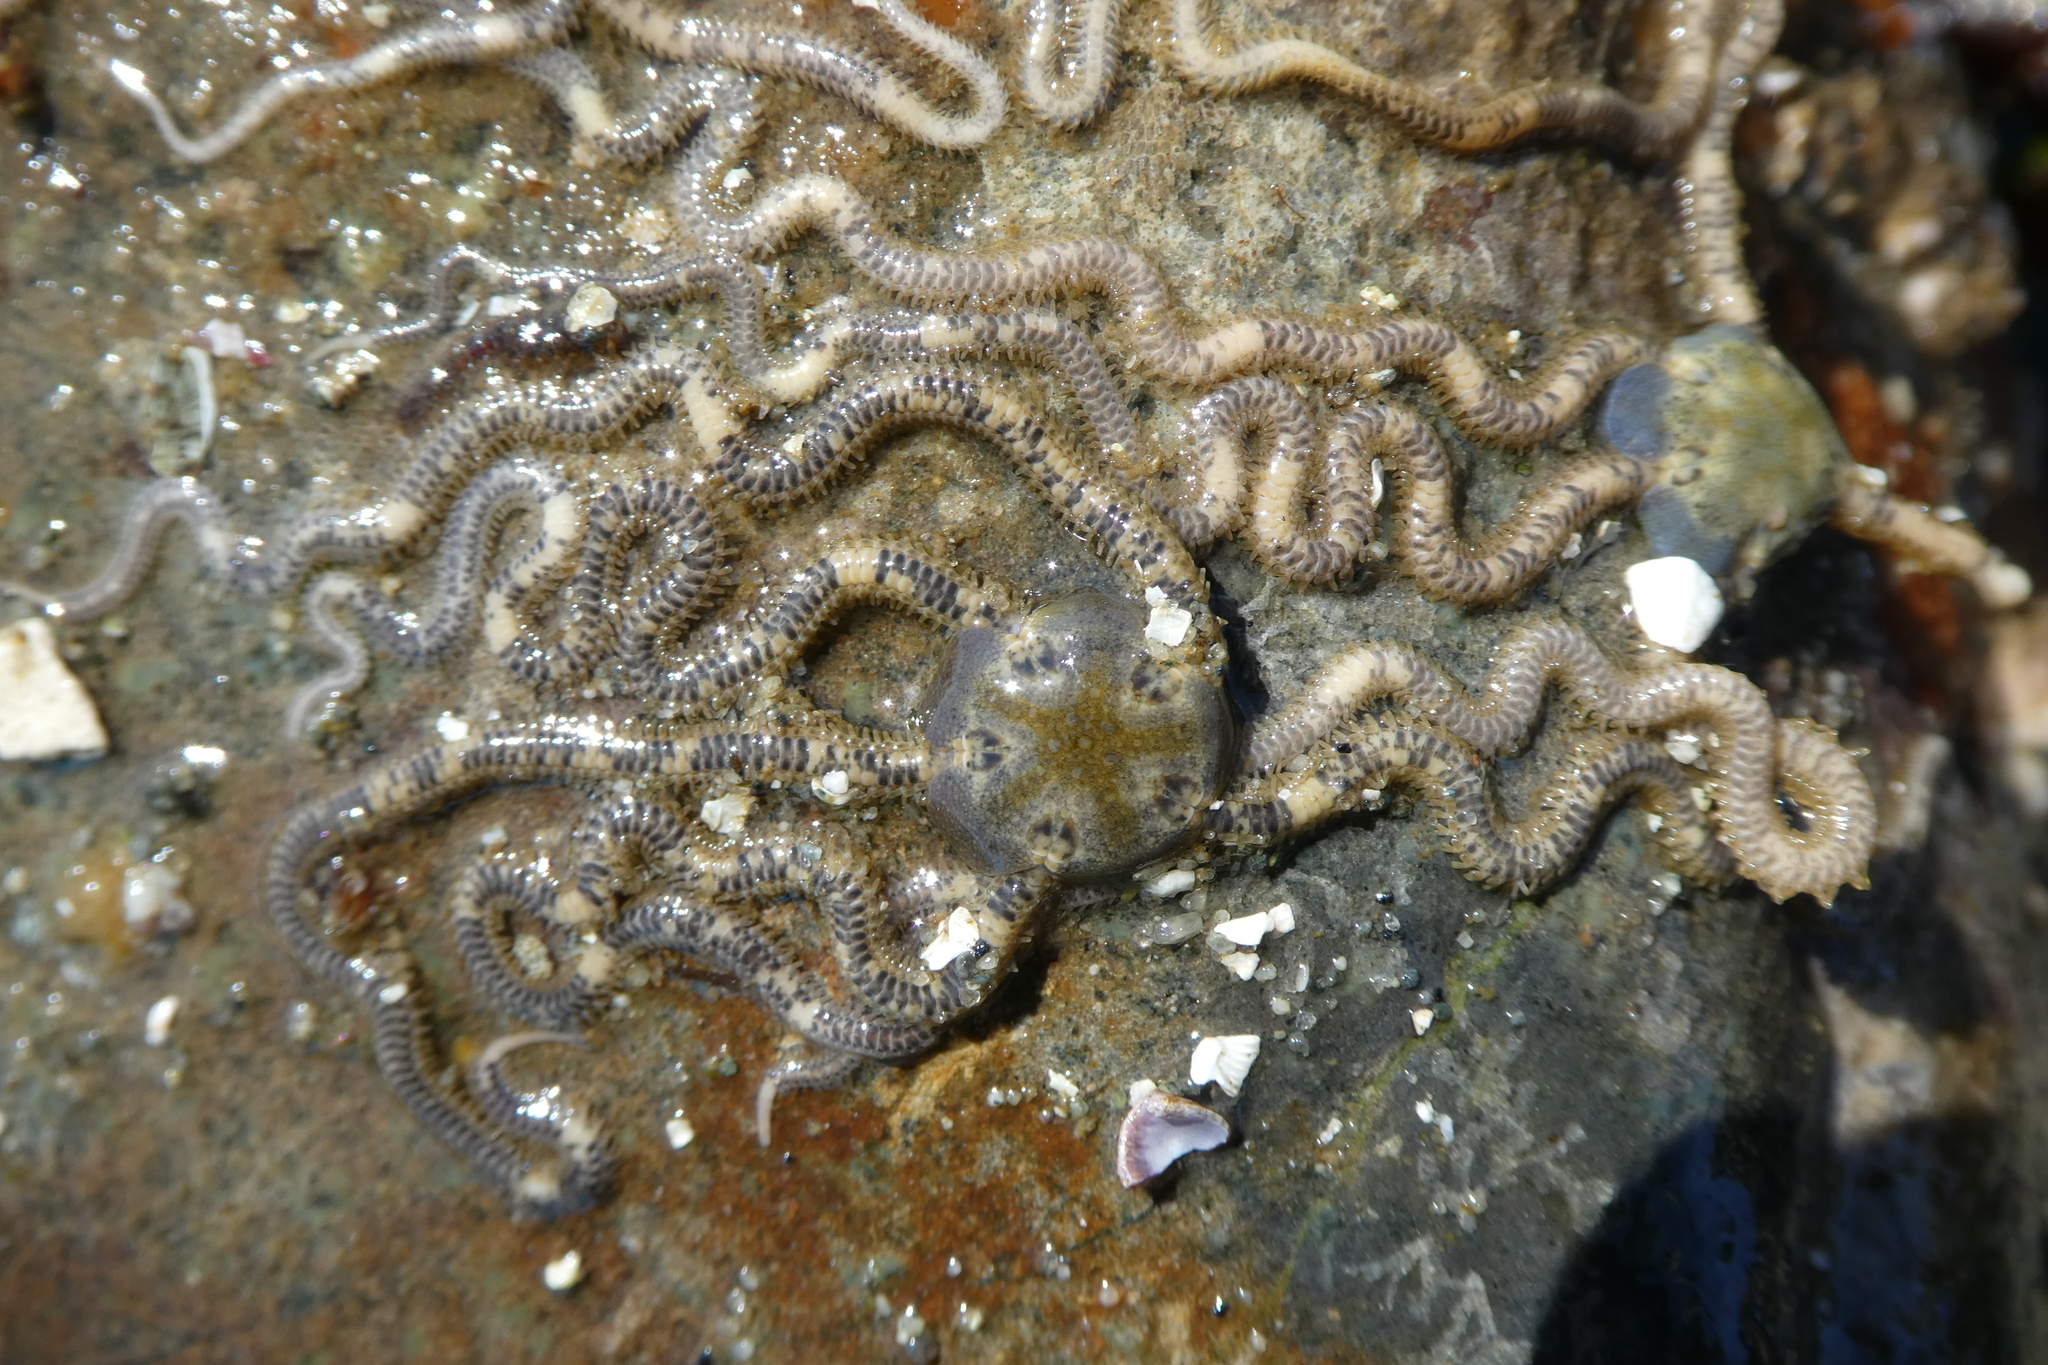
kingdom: Animalia
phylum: Echinodermata
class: Ophiuroidea
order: Amphilepidida
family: Amphiuridae
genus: Amphiodia
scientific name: Amphiodia occidentalis
